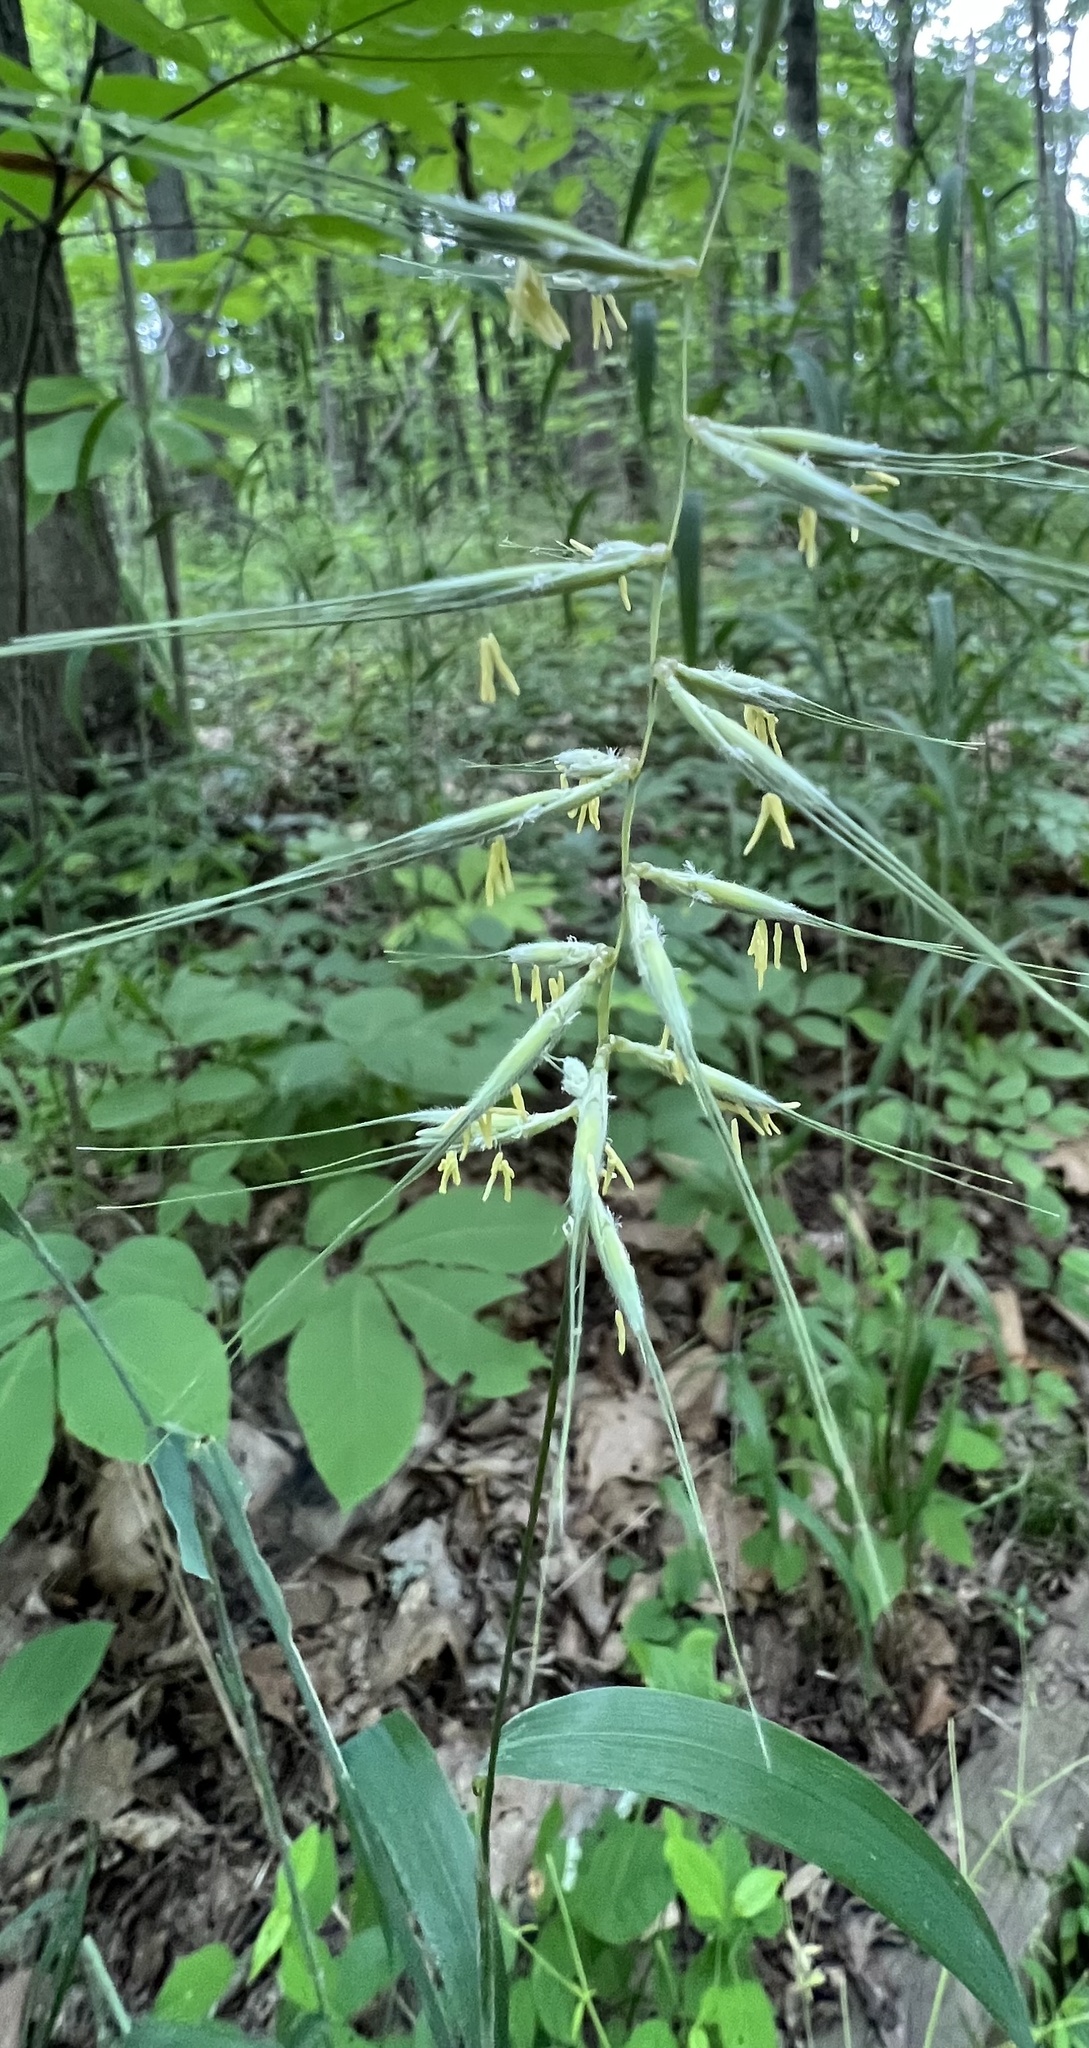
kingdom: Plantae
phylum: Tracheophyta
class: Liliopsida
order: Poales
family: Poaceae
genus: Elymus
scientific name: Elymus hystrix
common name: Bottlebrush grass
